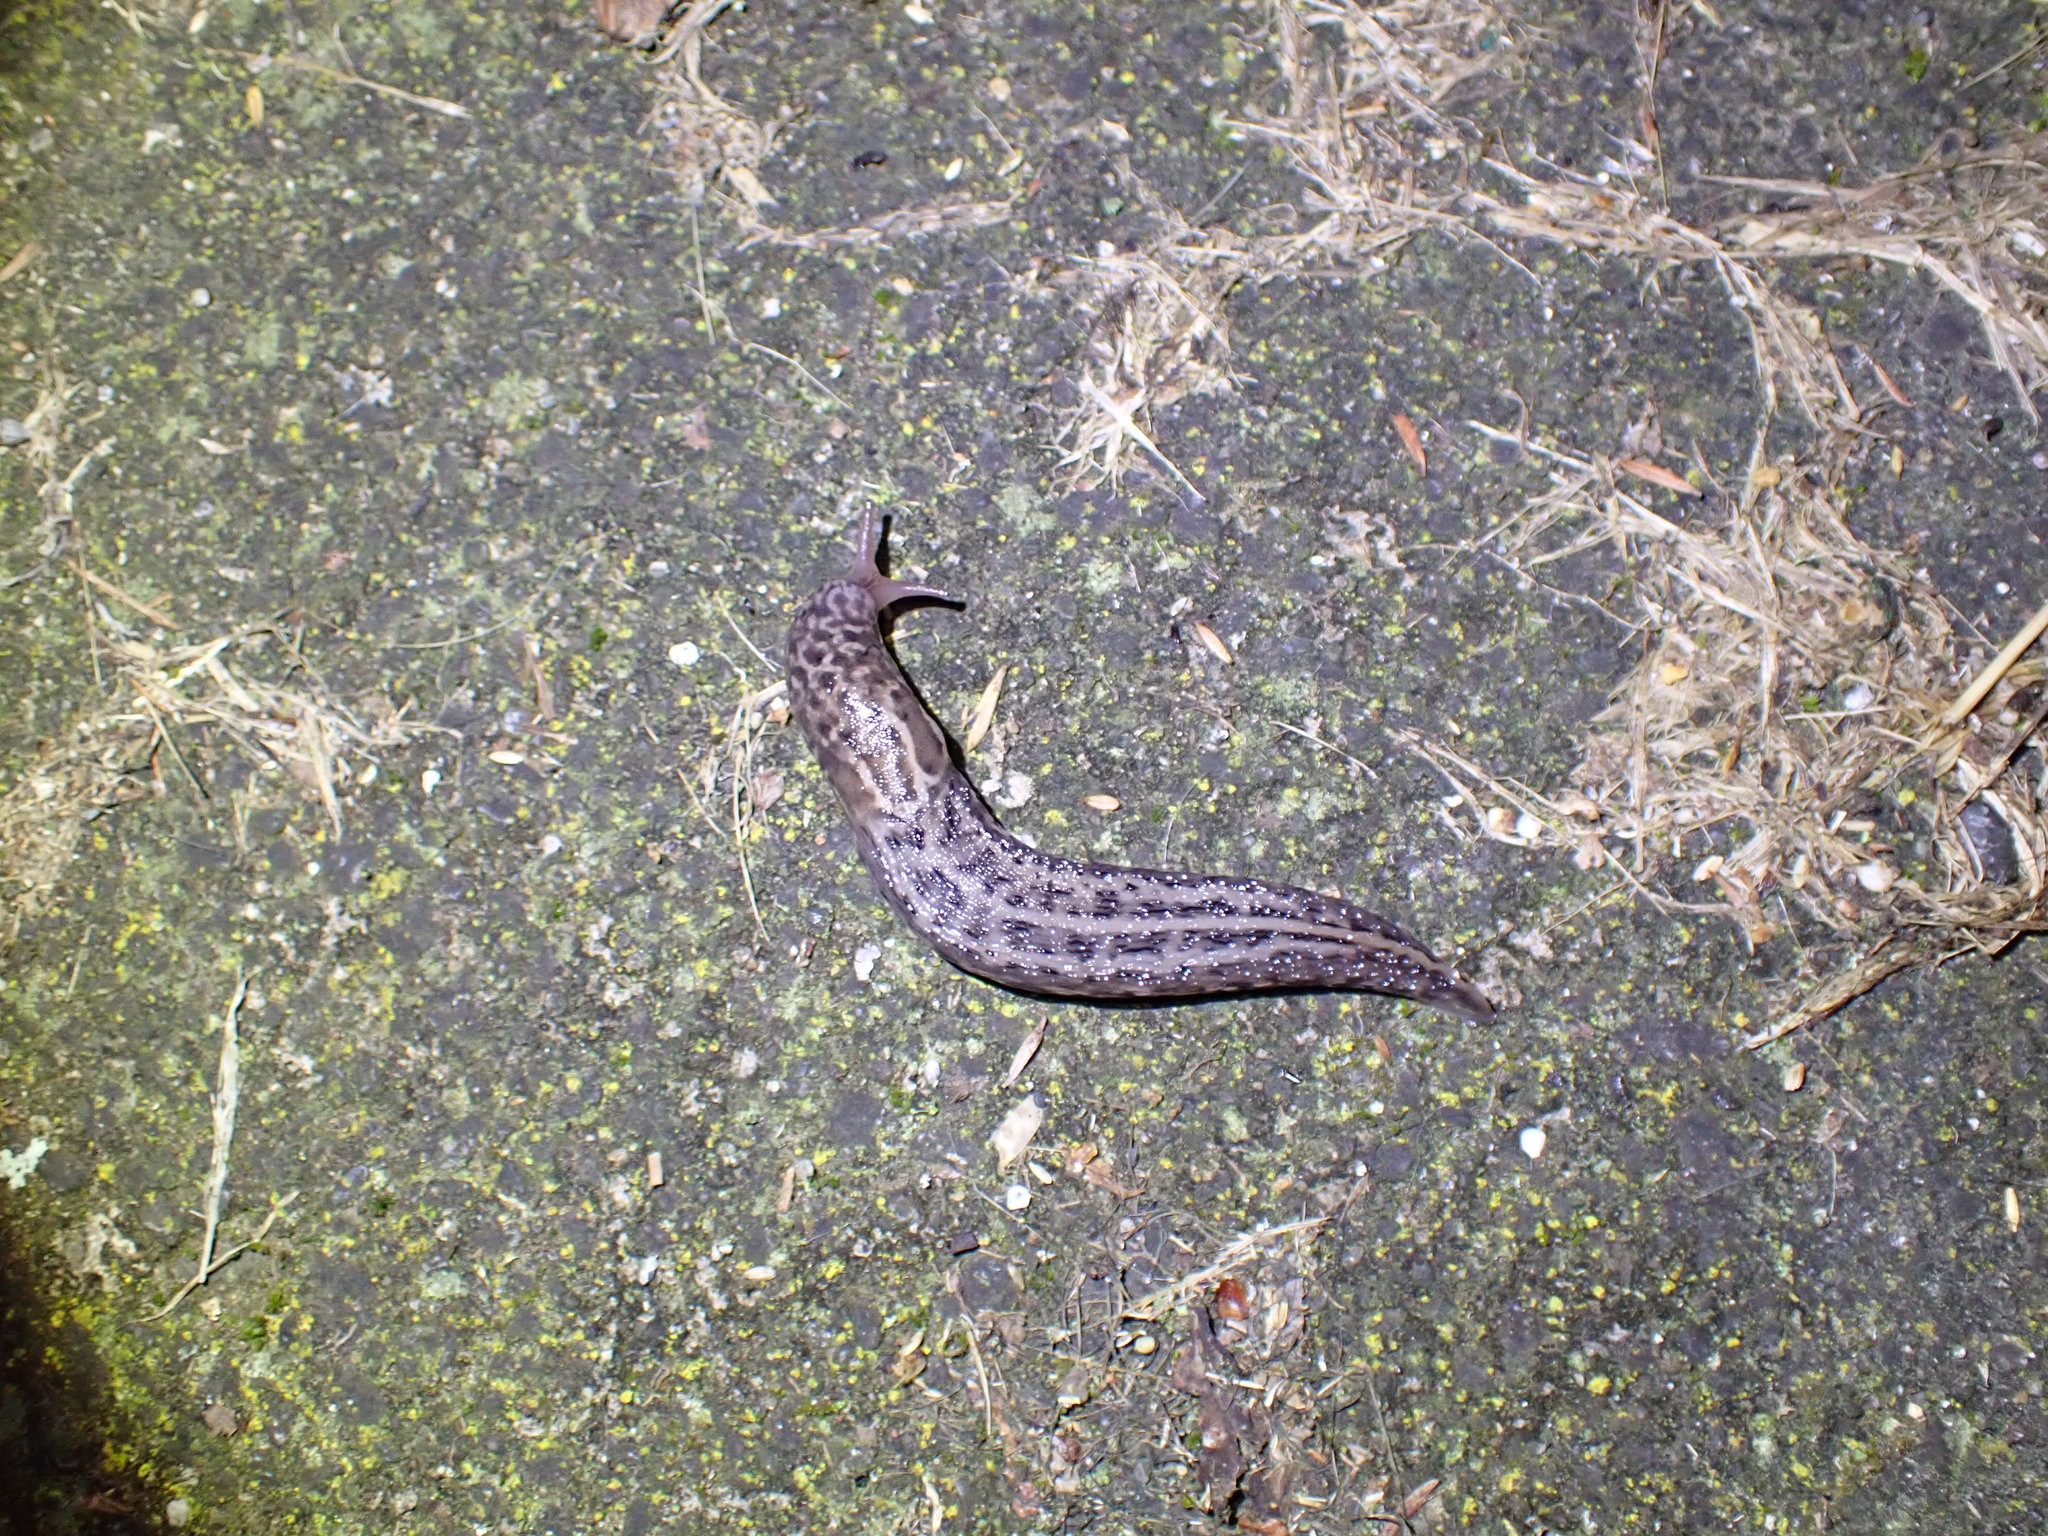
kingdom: Animalia
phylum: Mollusca
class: Gastropoda
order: Stylommatophora
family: Limacidae
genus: Limax
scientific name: Limax maximus
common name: Great grey slug
